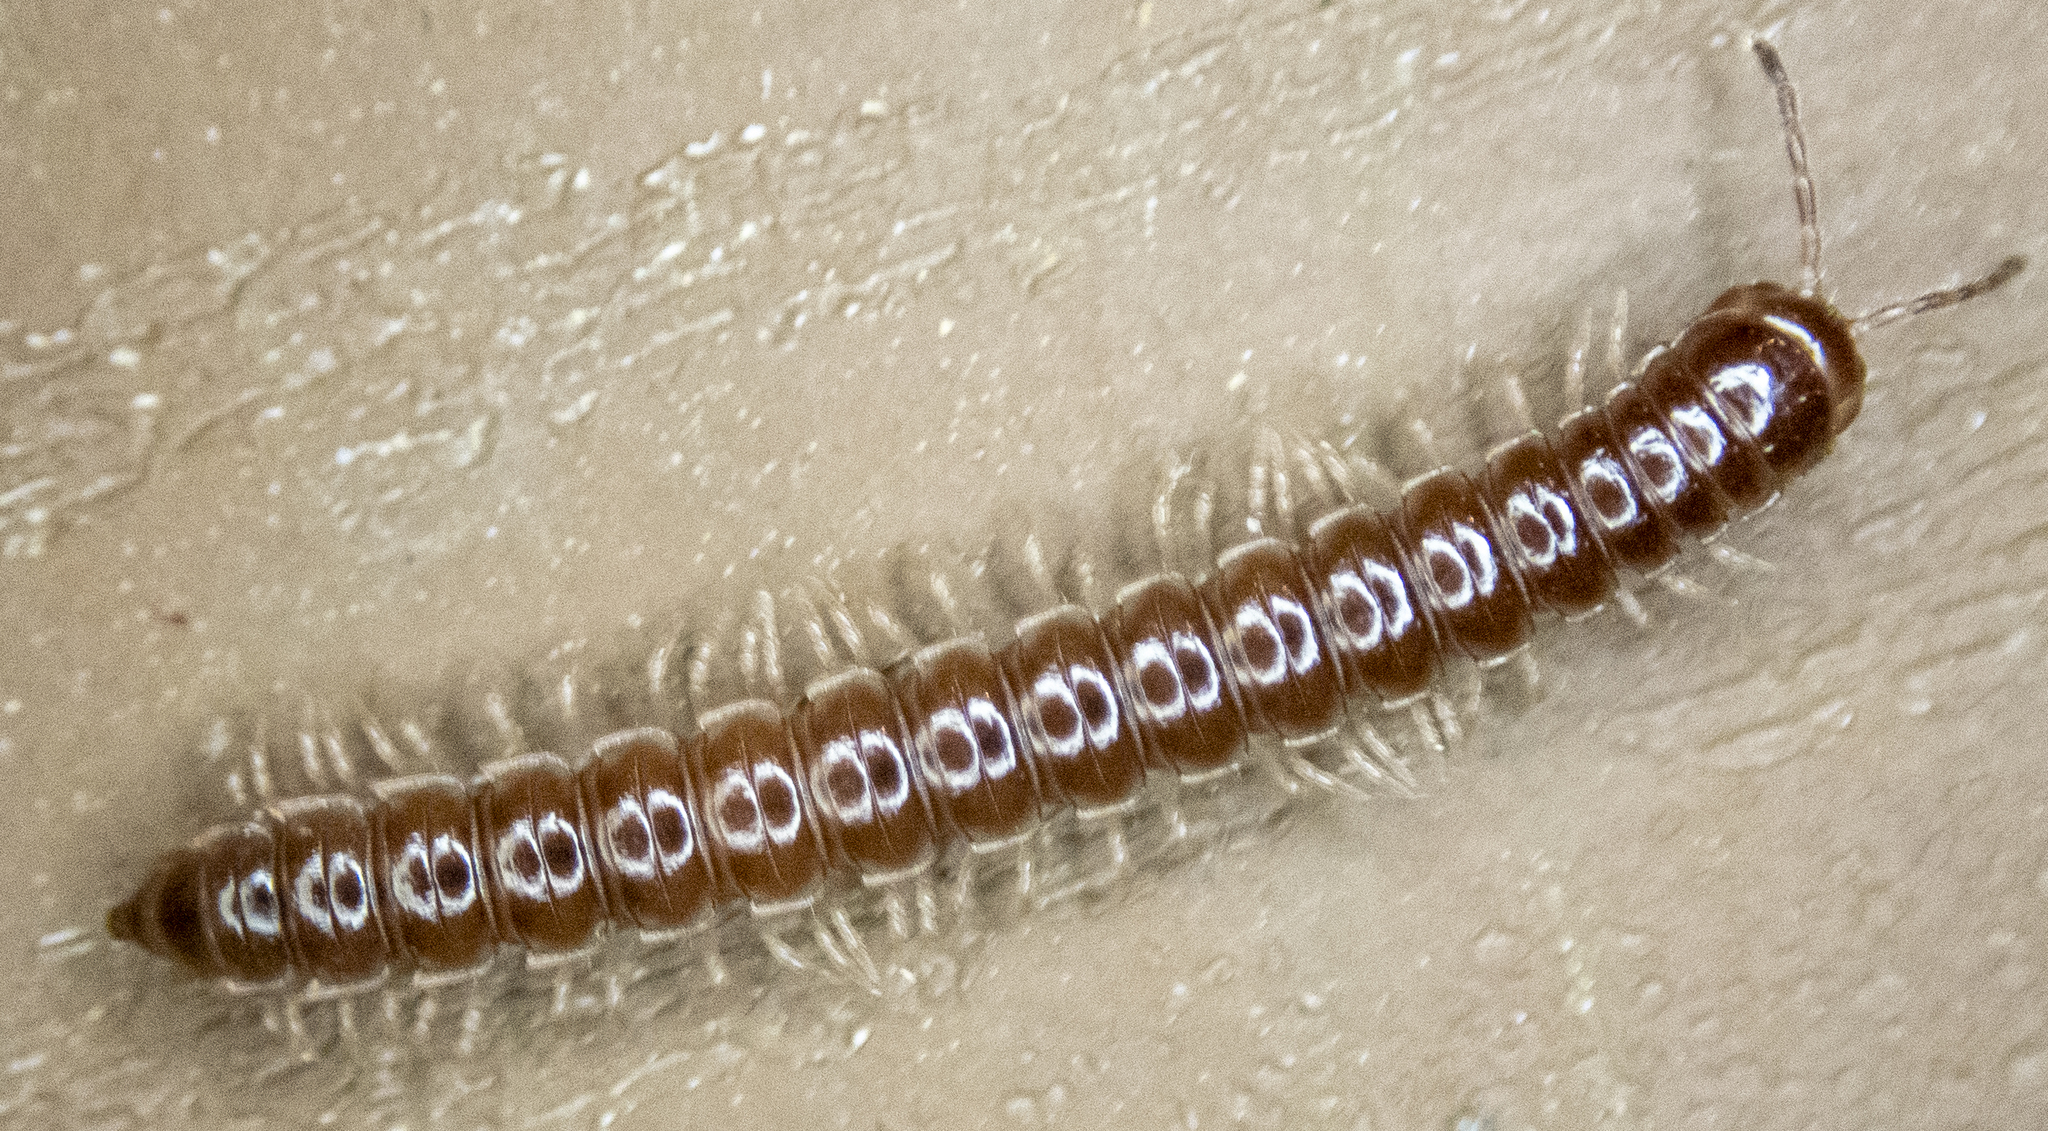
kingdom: Animalia
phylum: Arthropoda
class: Diplopoda
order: Polydesmida
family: Paradoxosomatidae
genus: Oxidus
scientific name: Oxidus gracilis
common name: Greenhouse millipede
